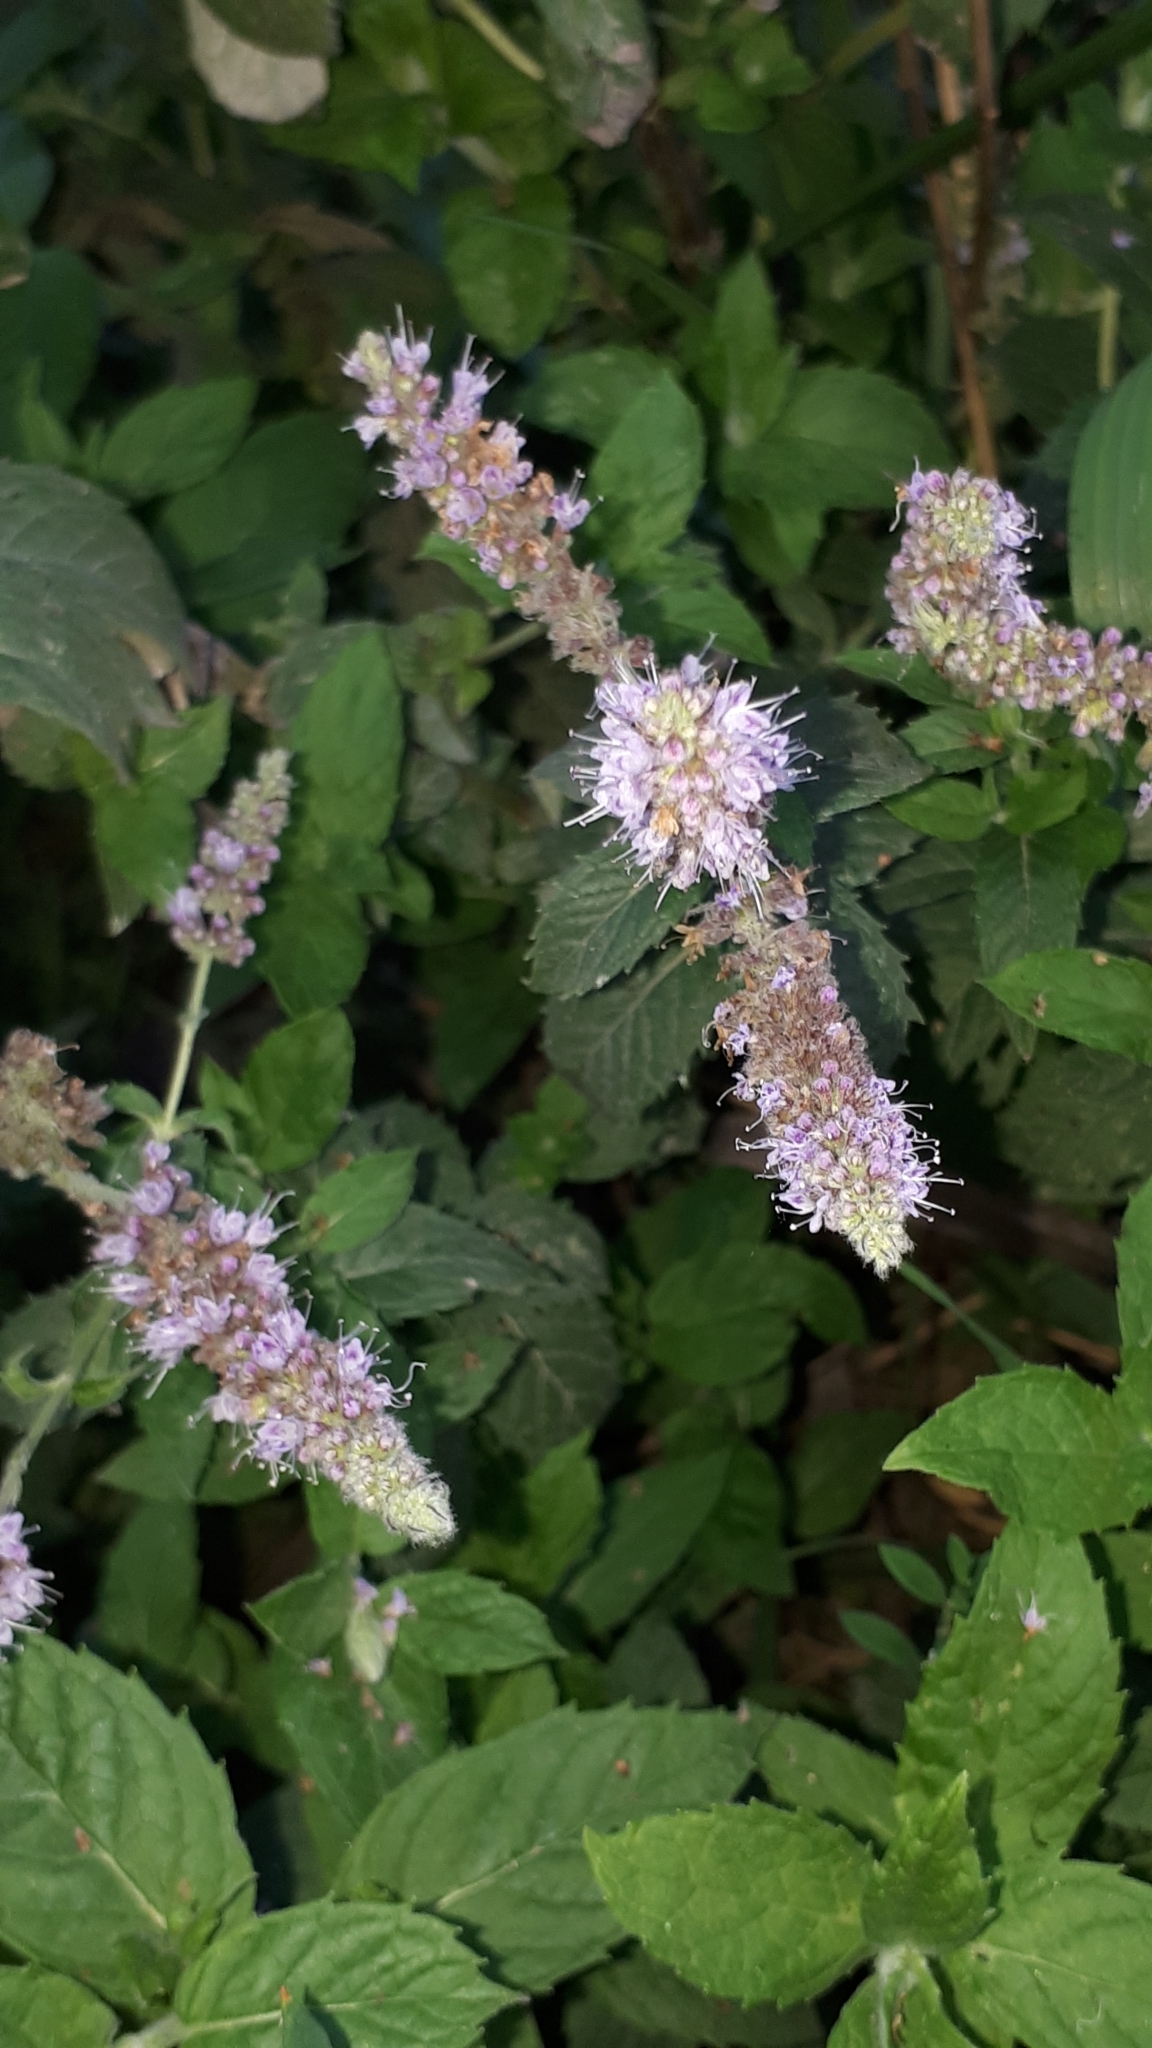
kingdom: Plantae
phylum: Tracheophyta
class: Magnoliopsida
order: Lamiales
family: Lamiaceae
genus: Mentha
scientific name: Mentha longifolia
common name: Horse mint
